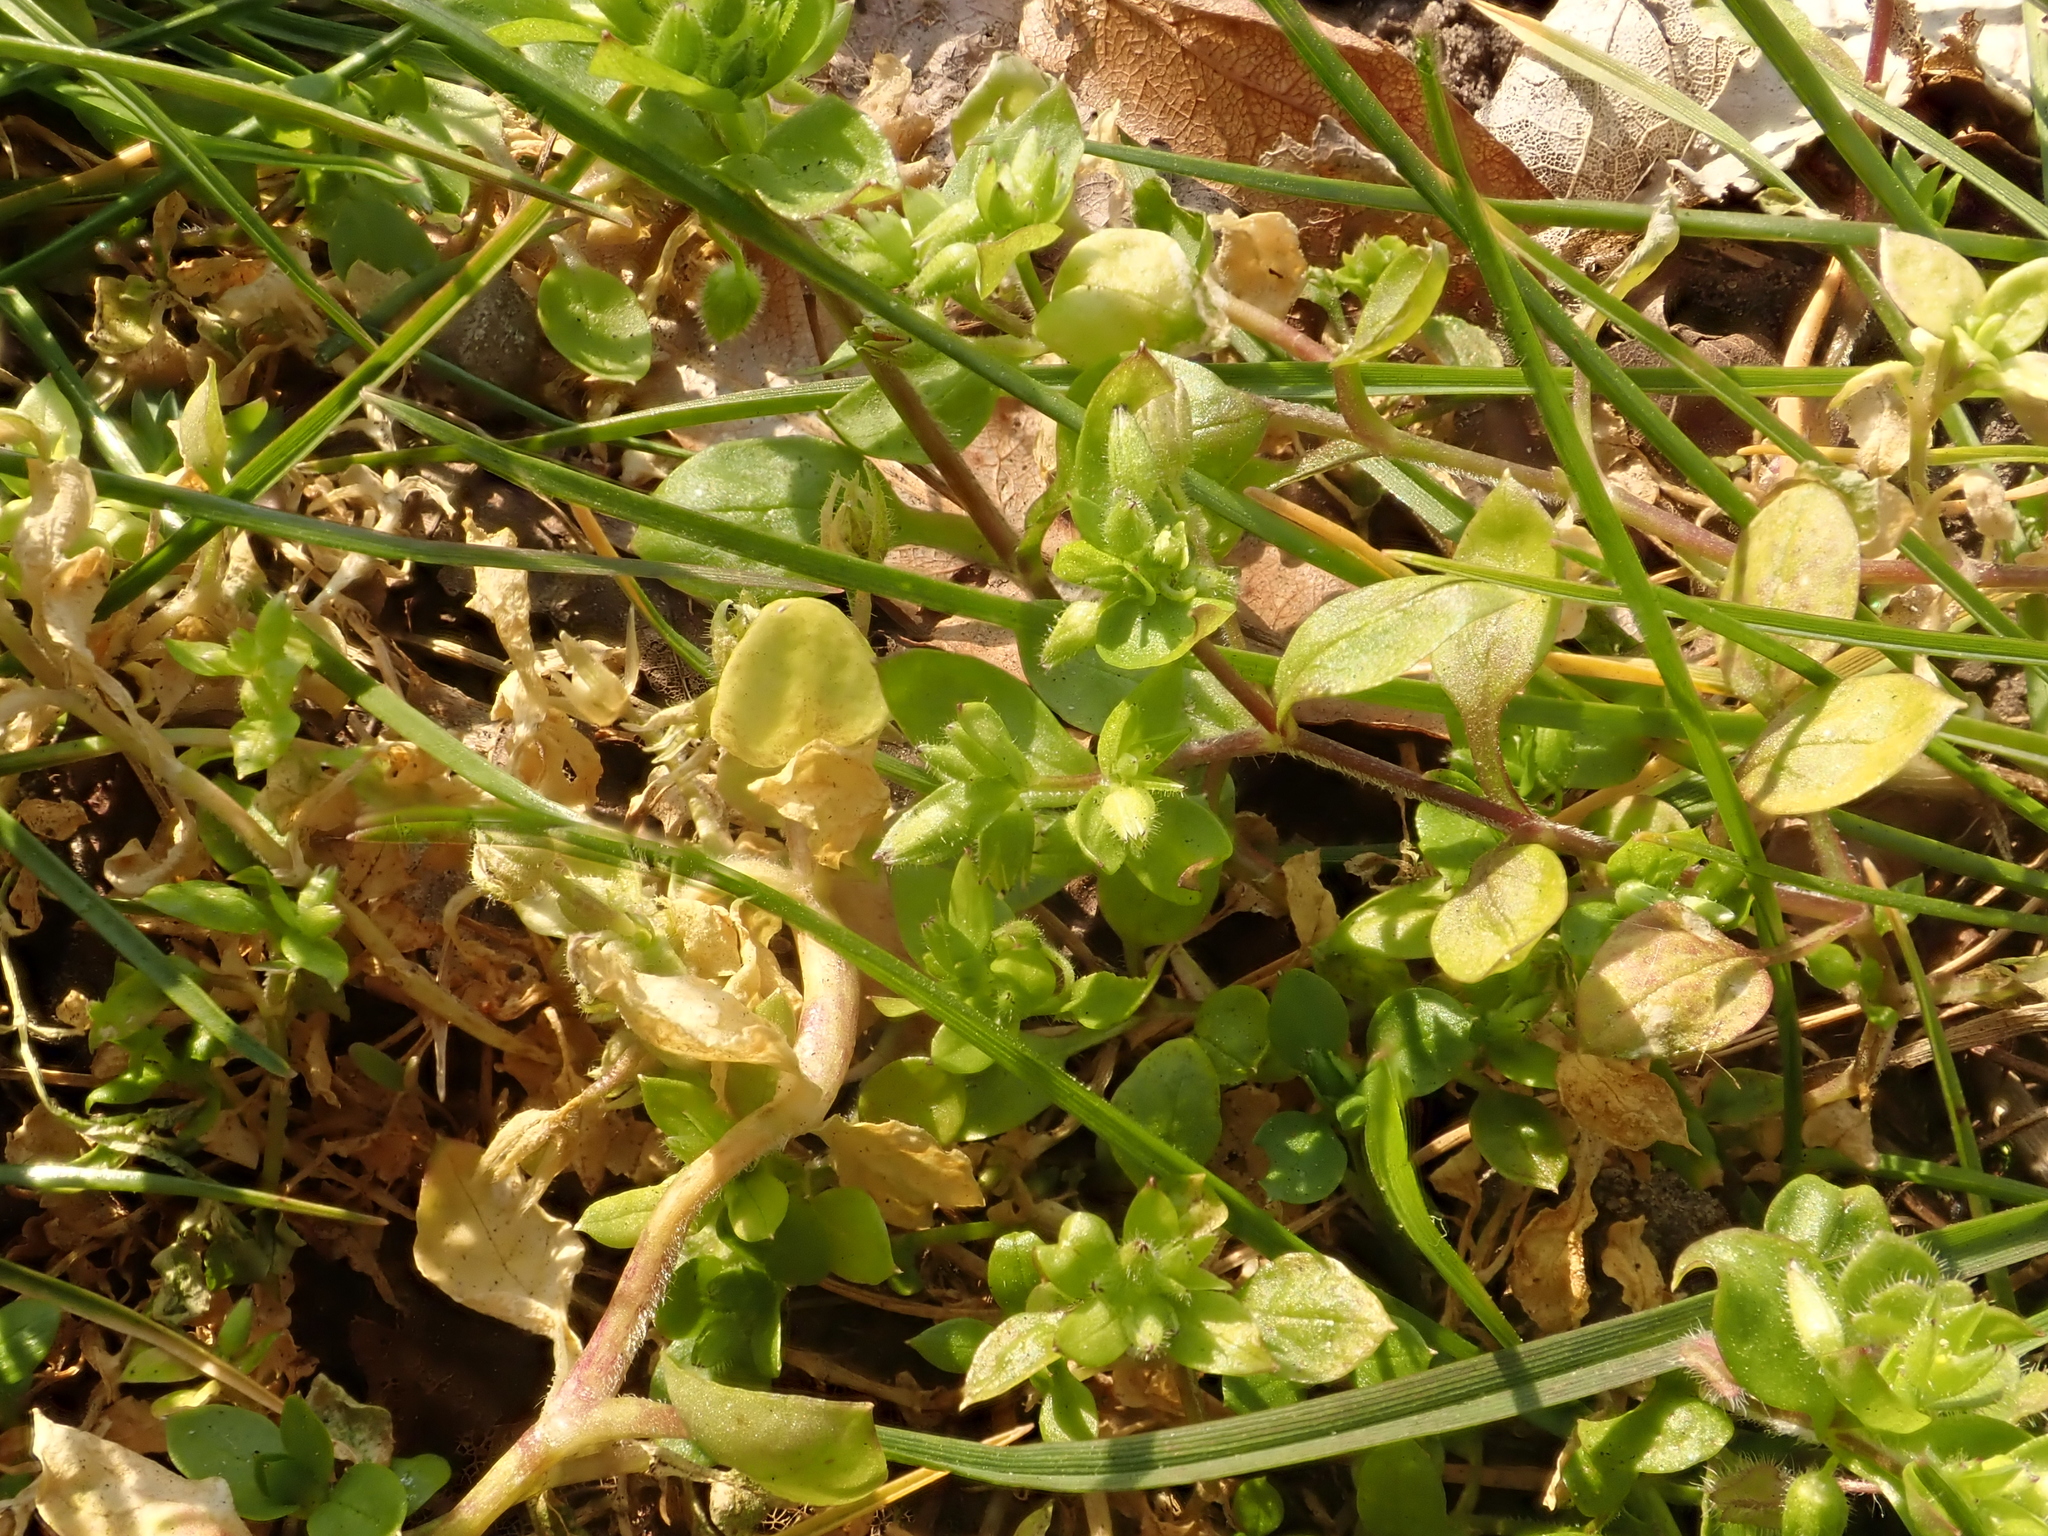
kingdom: Plantae
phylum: Tracheophyta
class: Magnoliopsida
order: Caryophyllales
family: Caryophyllaceae
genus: Stellaria
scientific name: Stellaria media
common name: Common chickweed
